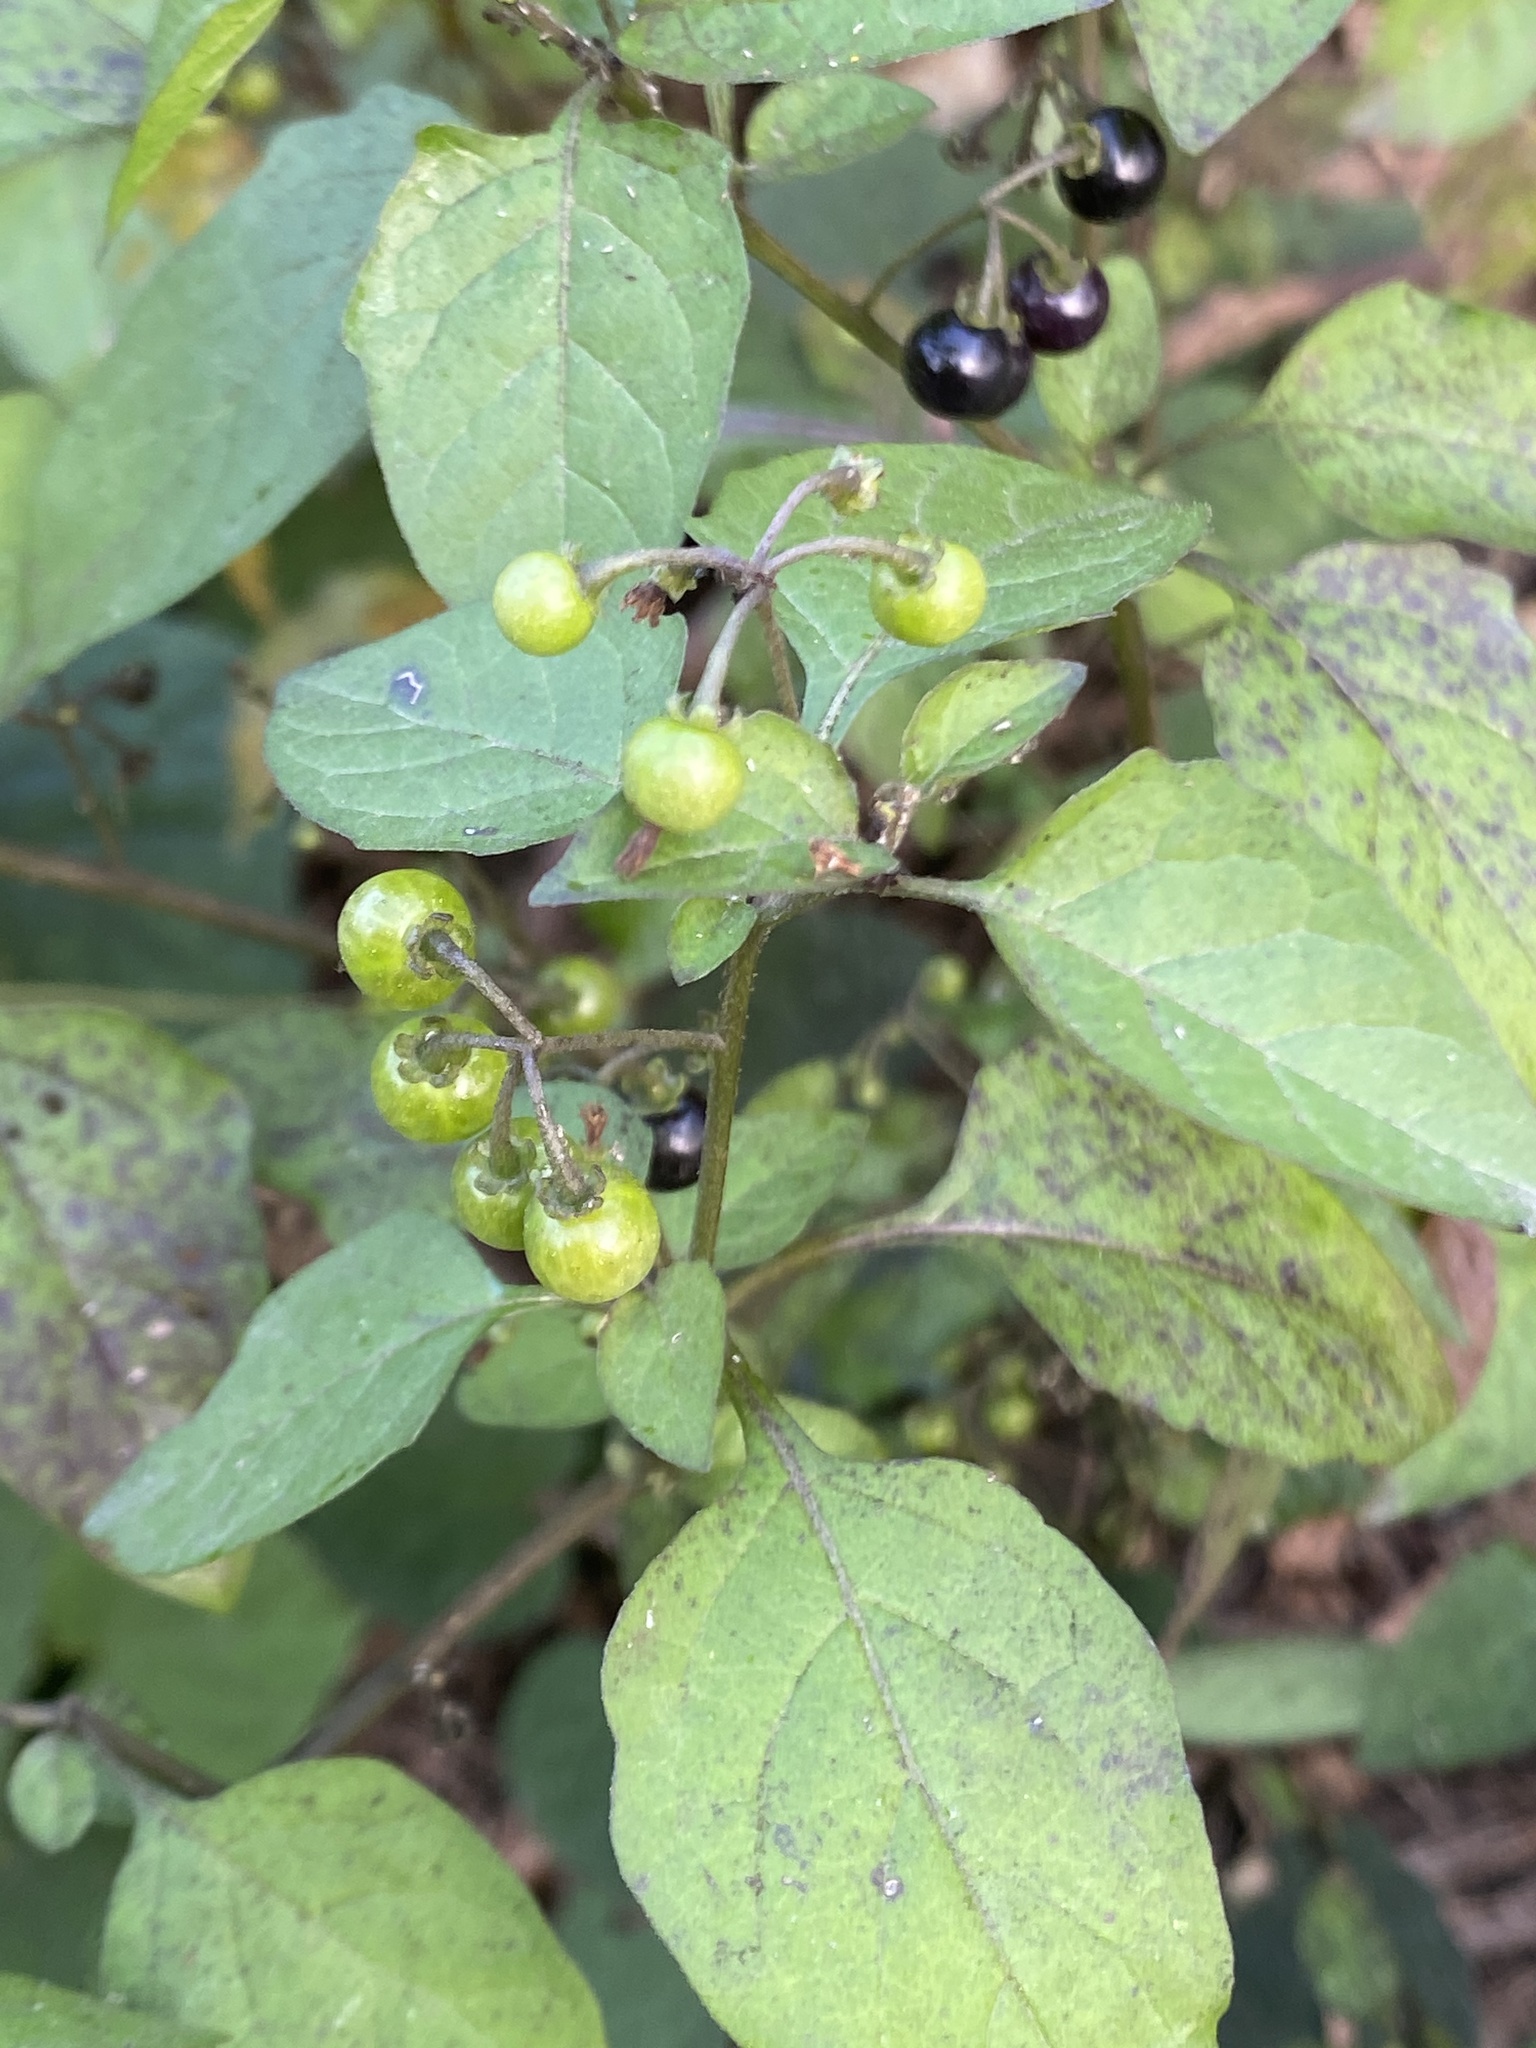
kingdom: Plantae
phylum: Tracheophyta
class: Magnoliopsida
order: Solanales
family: Solanaceae
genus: Solanum
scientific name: Solanum americanum
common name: American black nightshade
